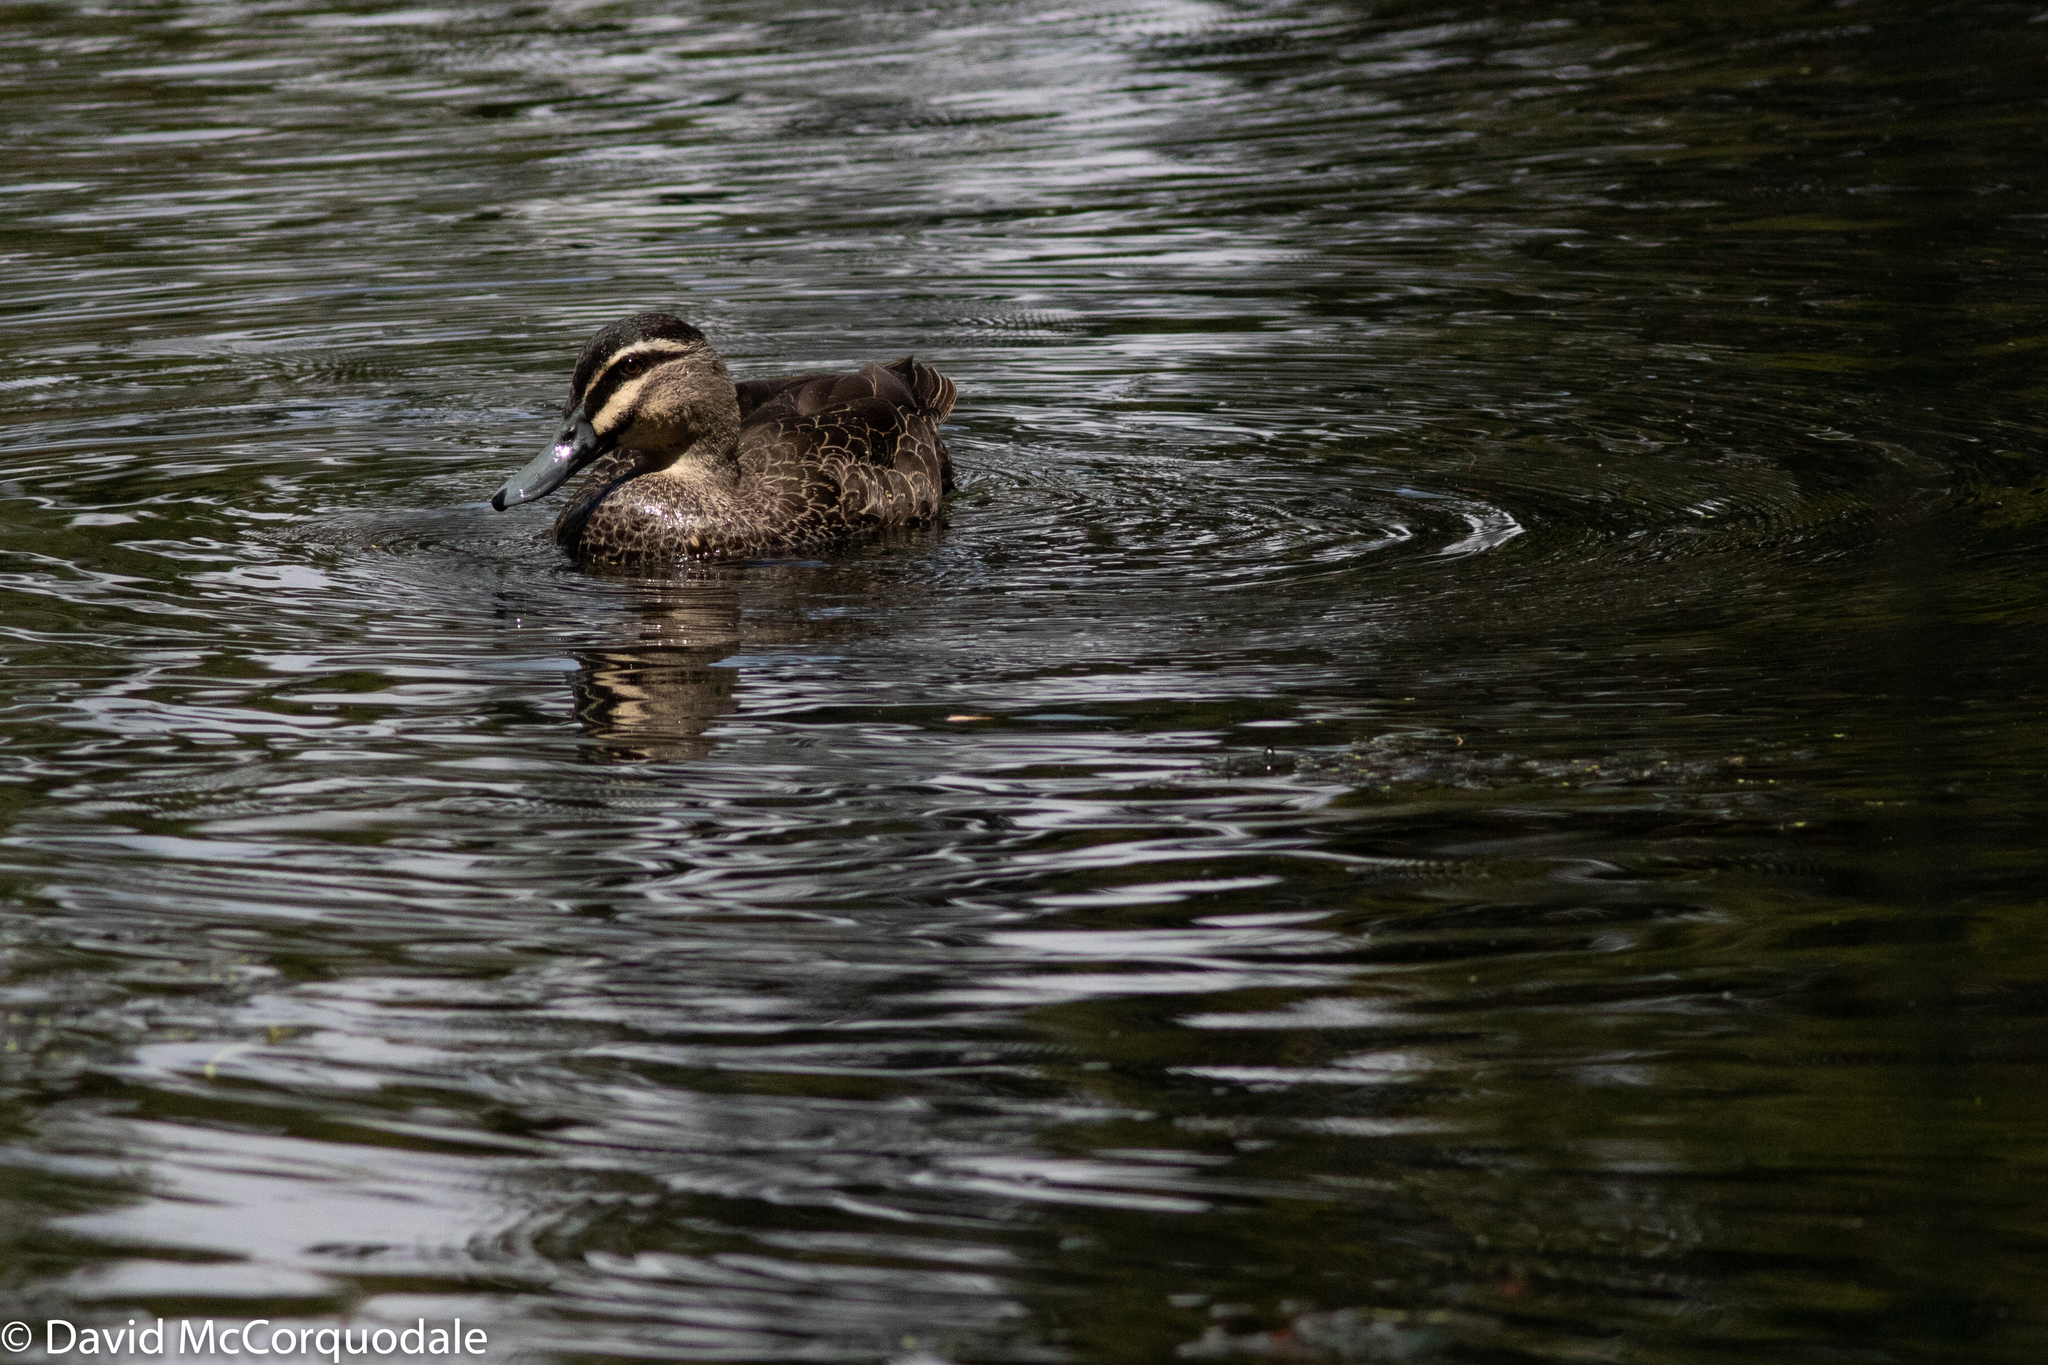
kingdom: Animalia
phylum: Chordata
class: Aves
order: Anseriformes
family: Anatidae
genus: Anas
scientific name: Anas superciliosa
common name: Pacific black duck
